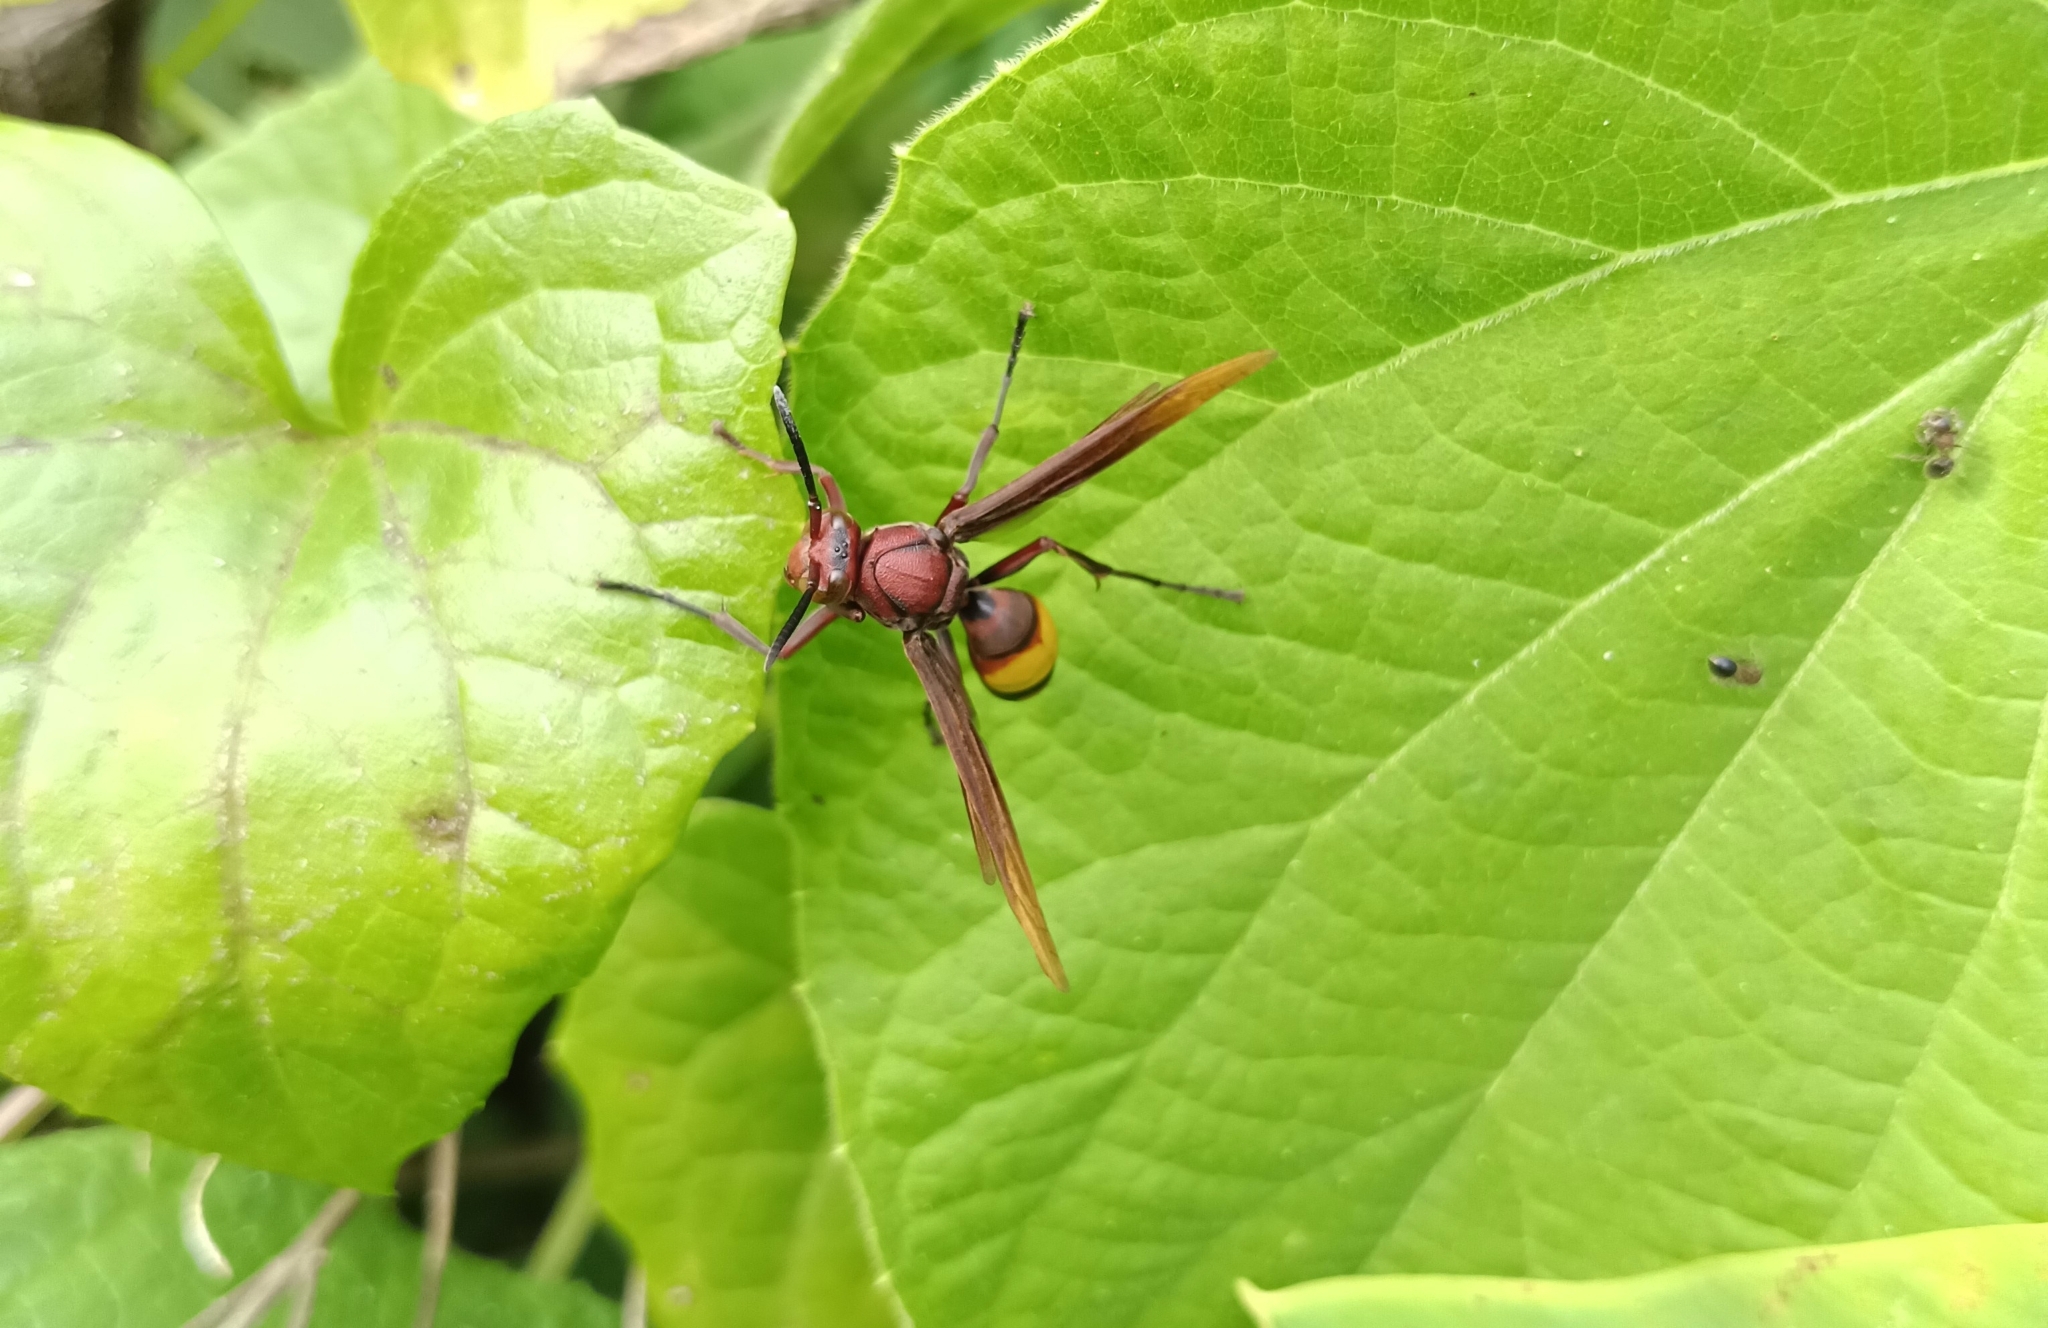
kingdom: Animalia
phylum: Arthropoda
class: Insecta
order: Hymenoptera
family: Eumenidae
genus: Polistes
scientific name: Polistes sagittarius
